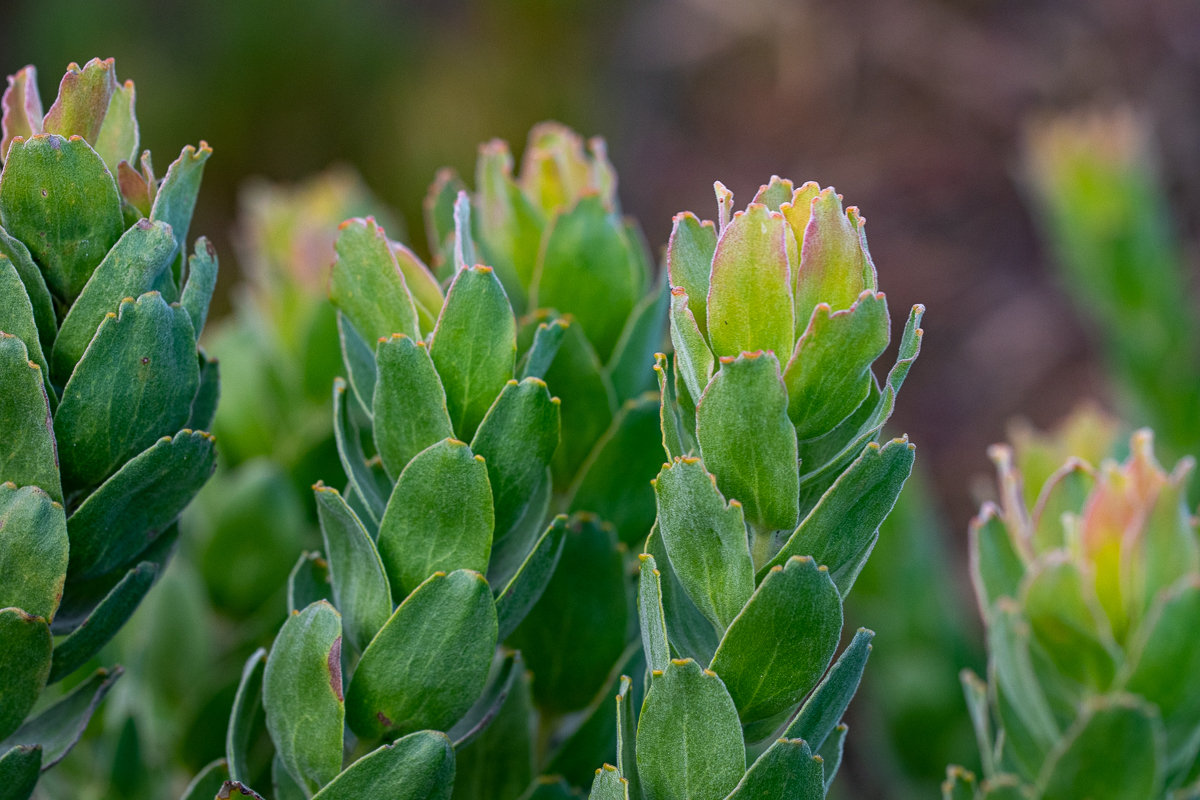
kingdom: Plantae
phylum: Tracheophyta
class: Magnoliopsida
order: Proteales
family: Proteaceae
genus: Leucospermum
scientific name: Leucospermum oleifolium
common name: Matches
